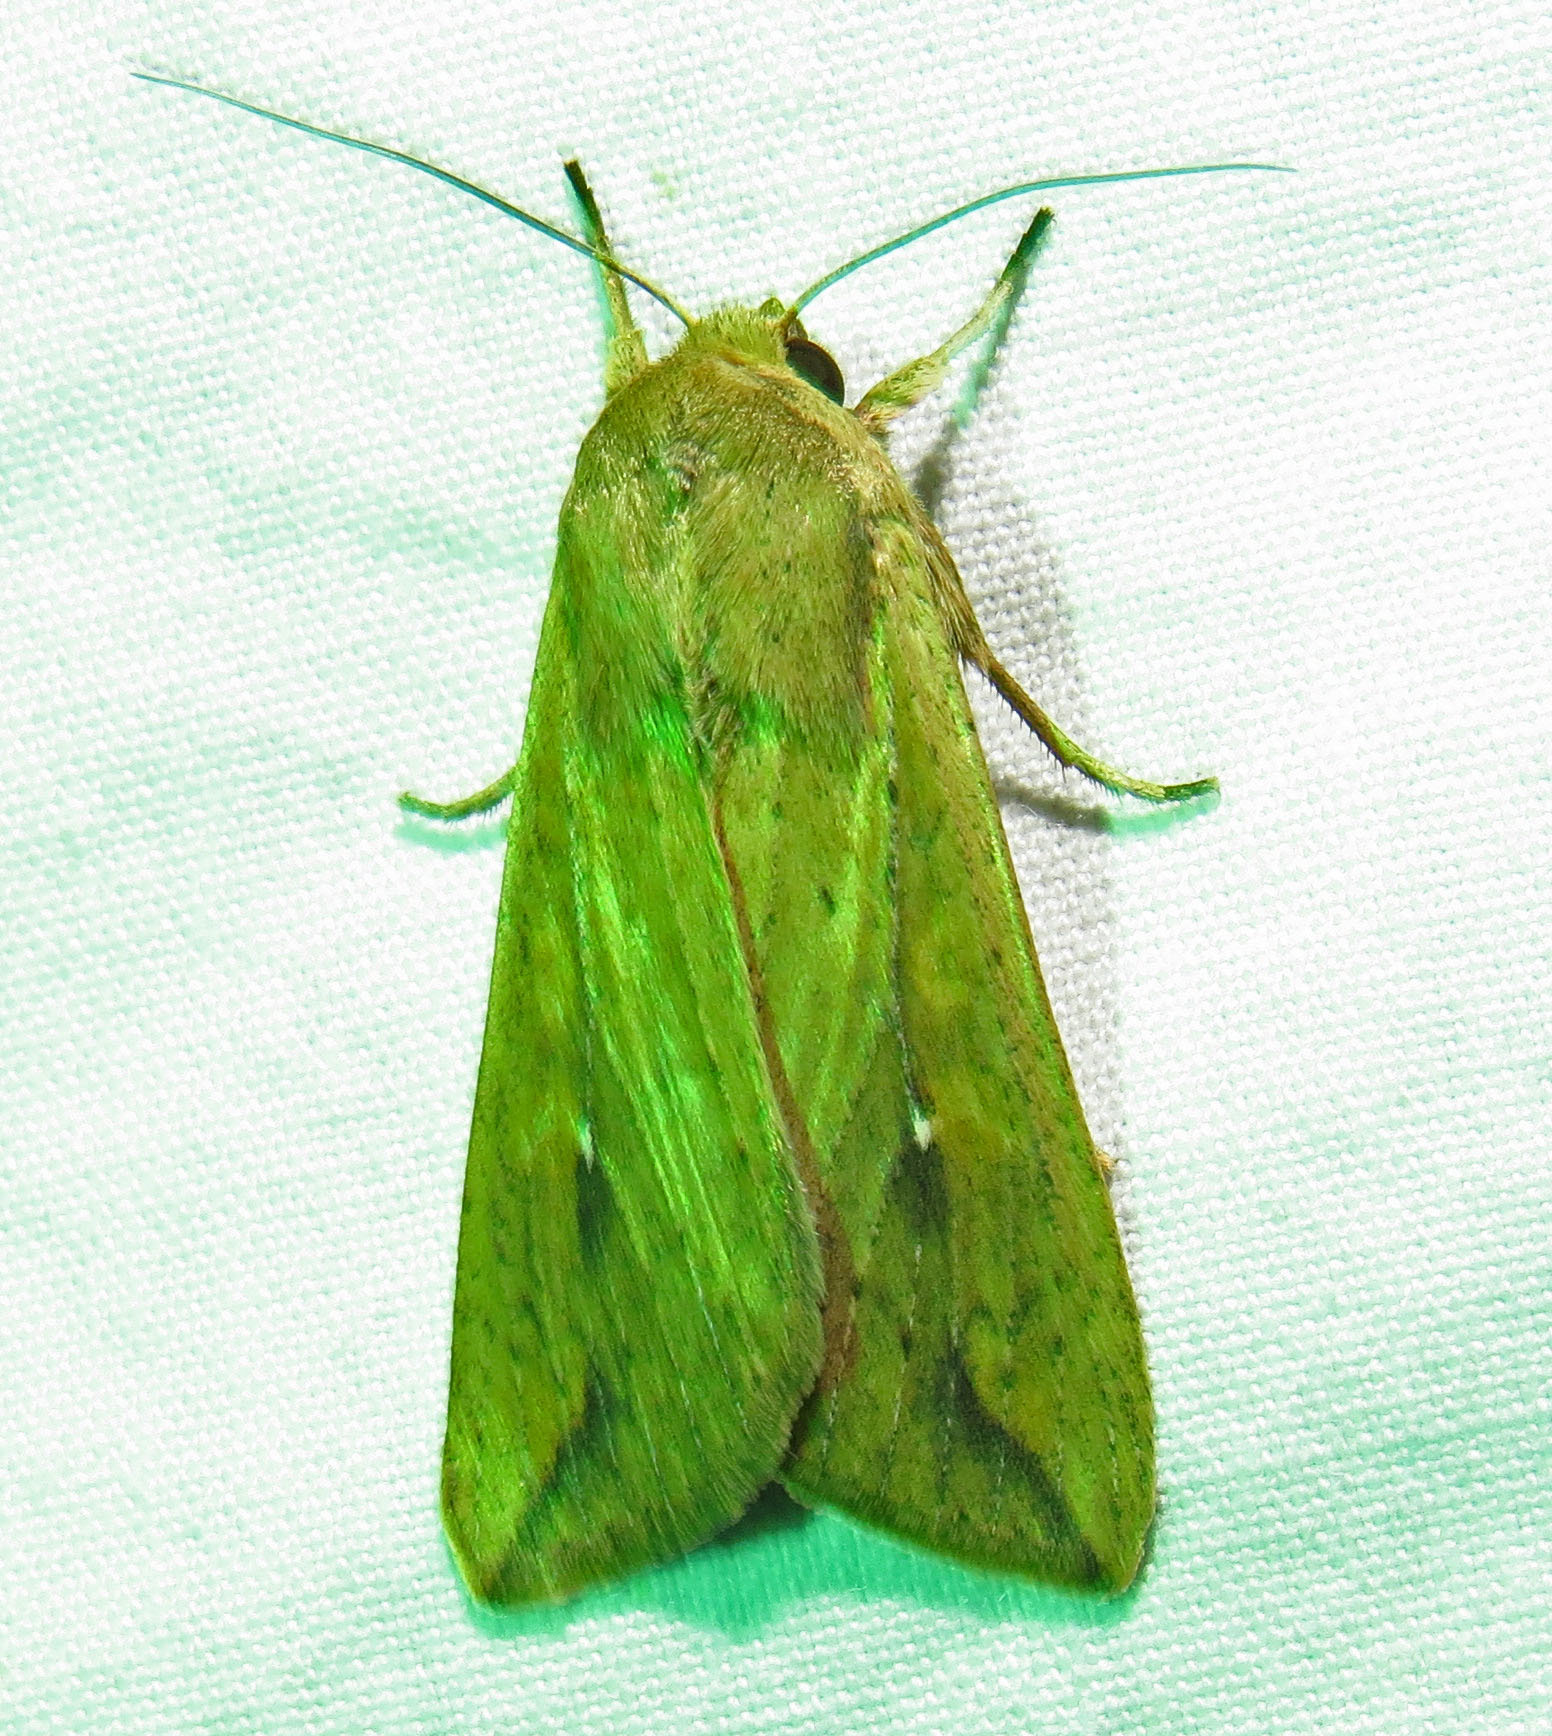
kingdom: Animalia
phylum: Arthropoda
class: Insecta
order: Lepidoptera
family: Noctuidae
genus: Mythimna
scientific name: Mythimna unipuncta
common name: White-speck
